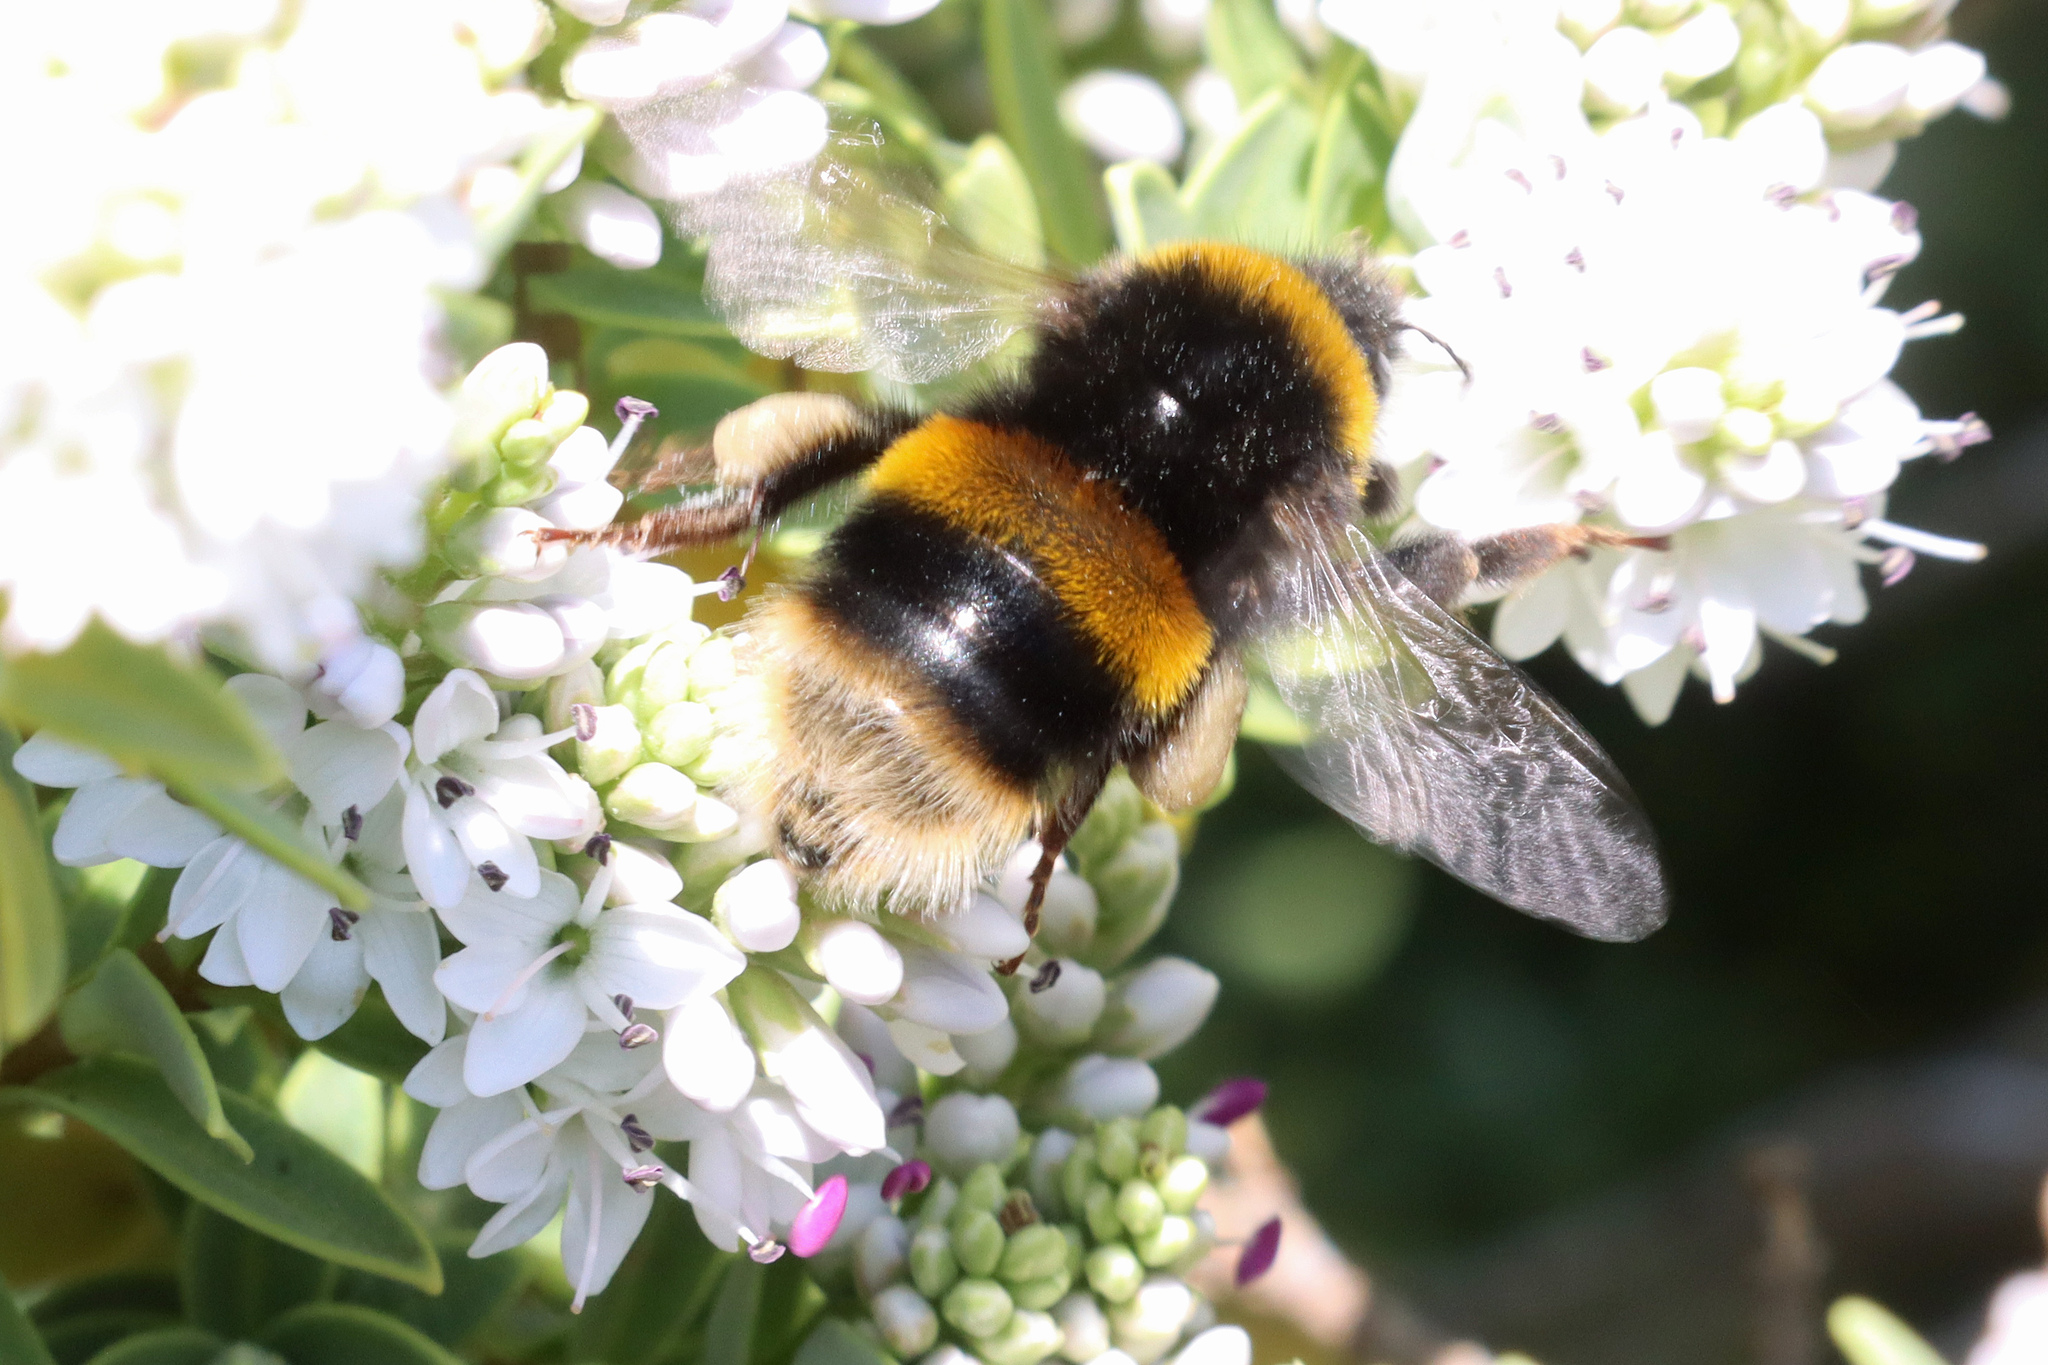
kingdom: Animalia
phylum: Arthropoda
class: Insecta
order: Hymenoptera
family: Apidae
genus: Bombus
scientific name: Bombus terrestris
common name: Buff-tailed bumblebee
